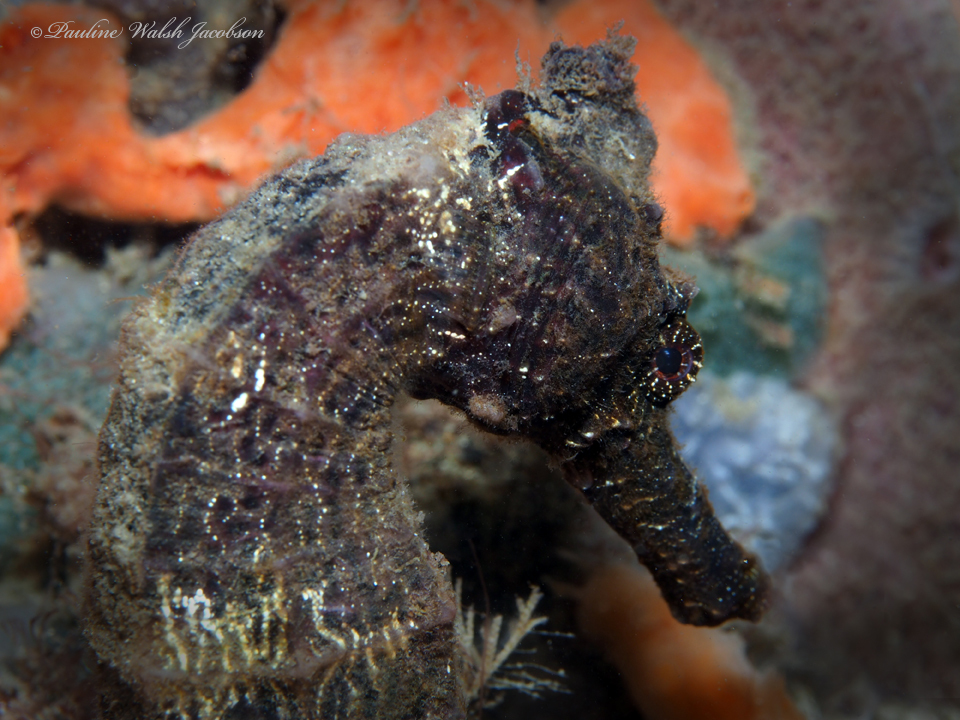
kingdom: Animalia
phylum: Chordata
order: Syngnathiformes
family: Syngnathidae
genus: Hippocampus
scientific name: Hippocampus reidi
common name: Slender seahorse
